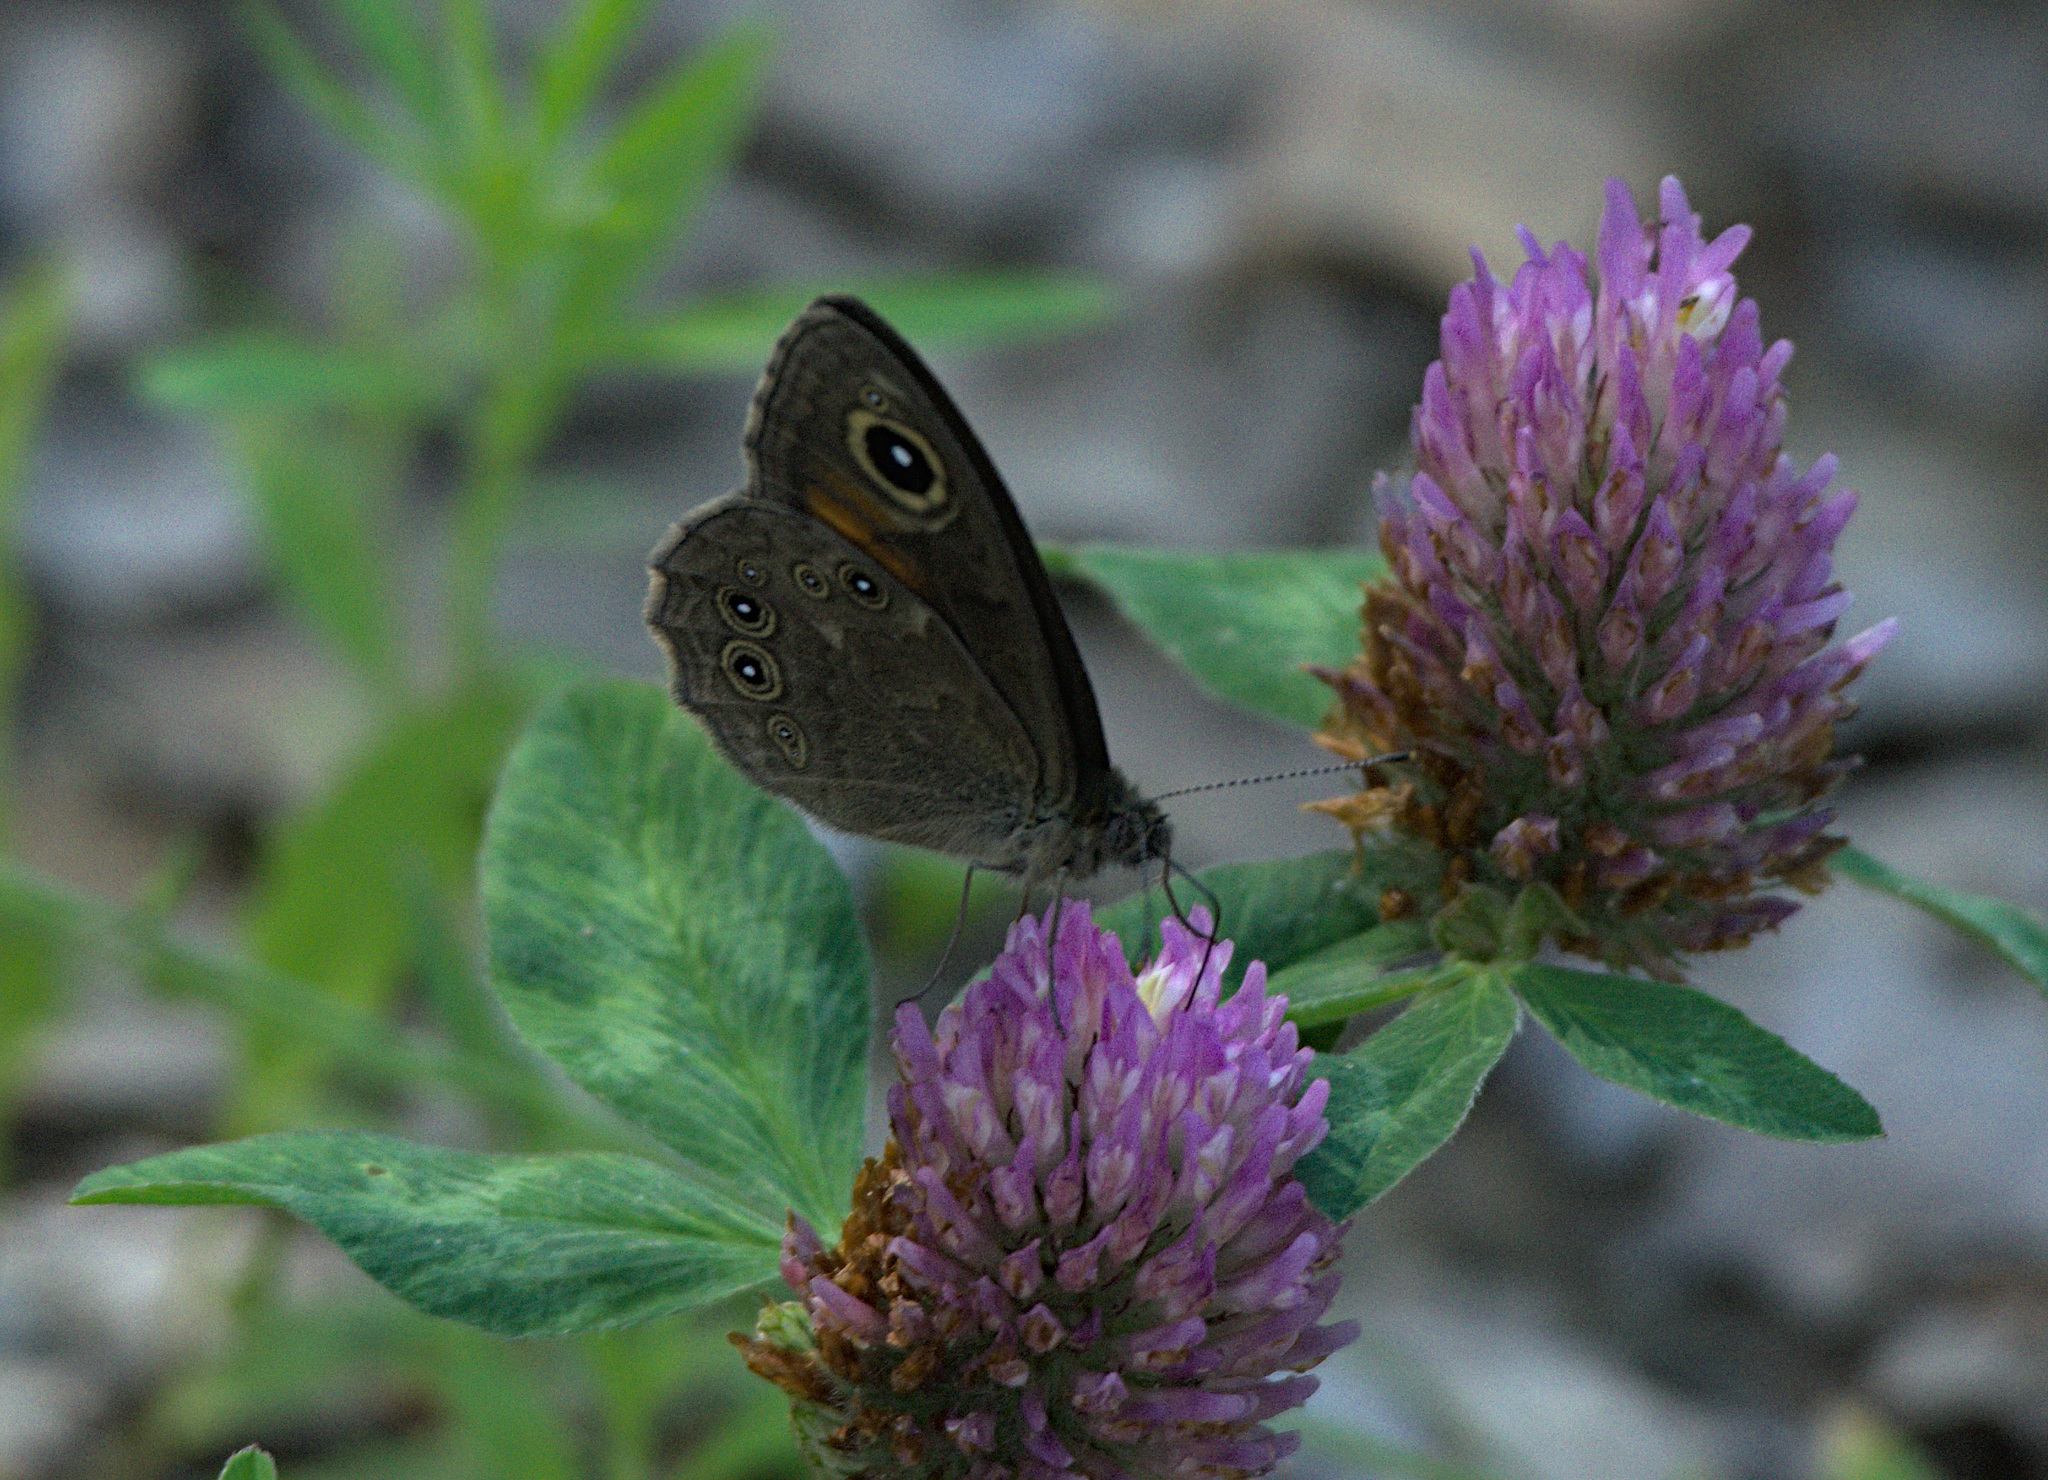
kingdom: Animalia
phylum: Arthropoda
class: Insecta
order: Lepidoptera
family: Nymphalidae
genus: Pararge
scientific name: Pararge Lasiommata maera
